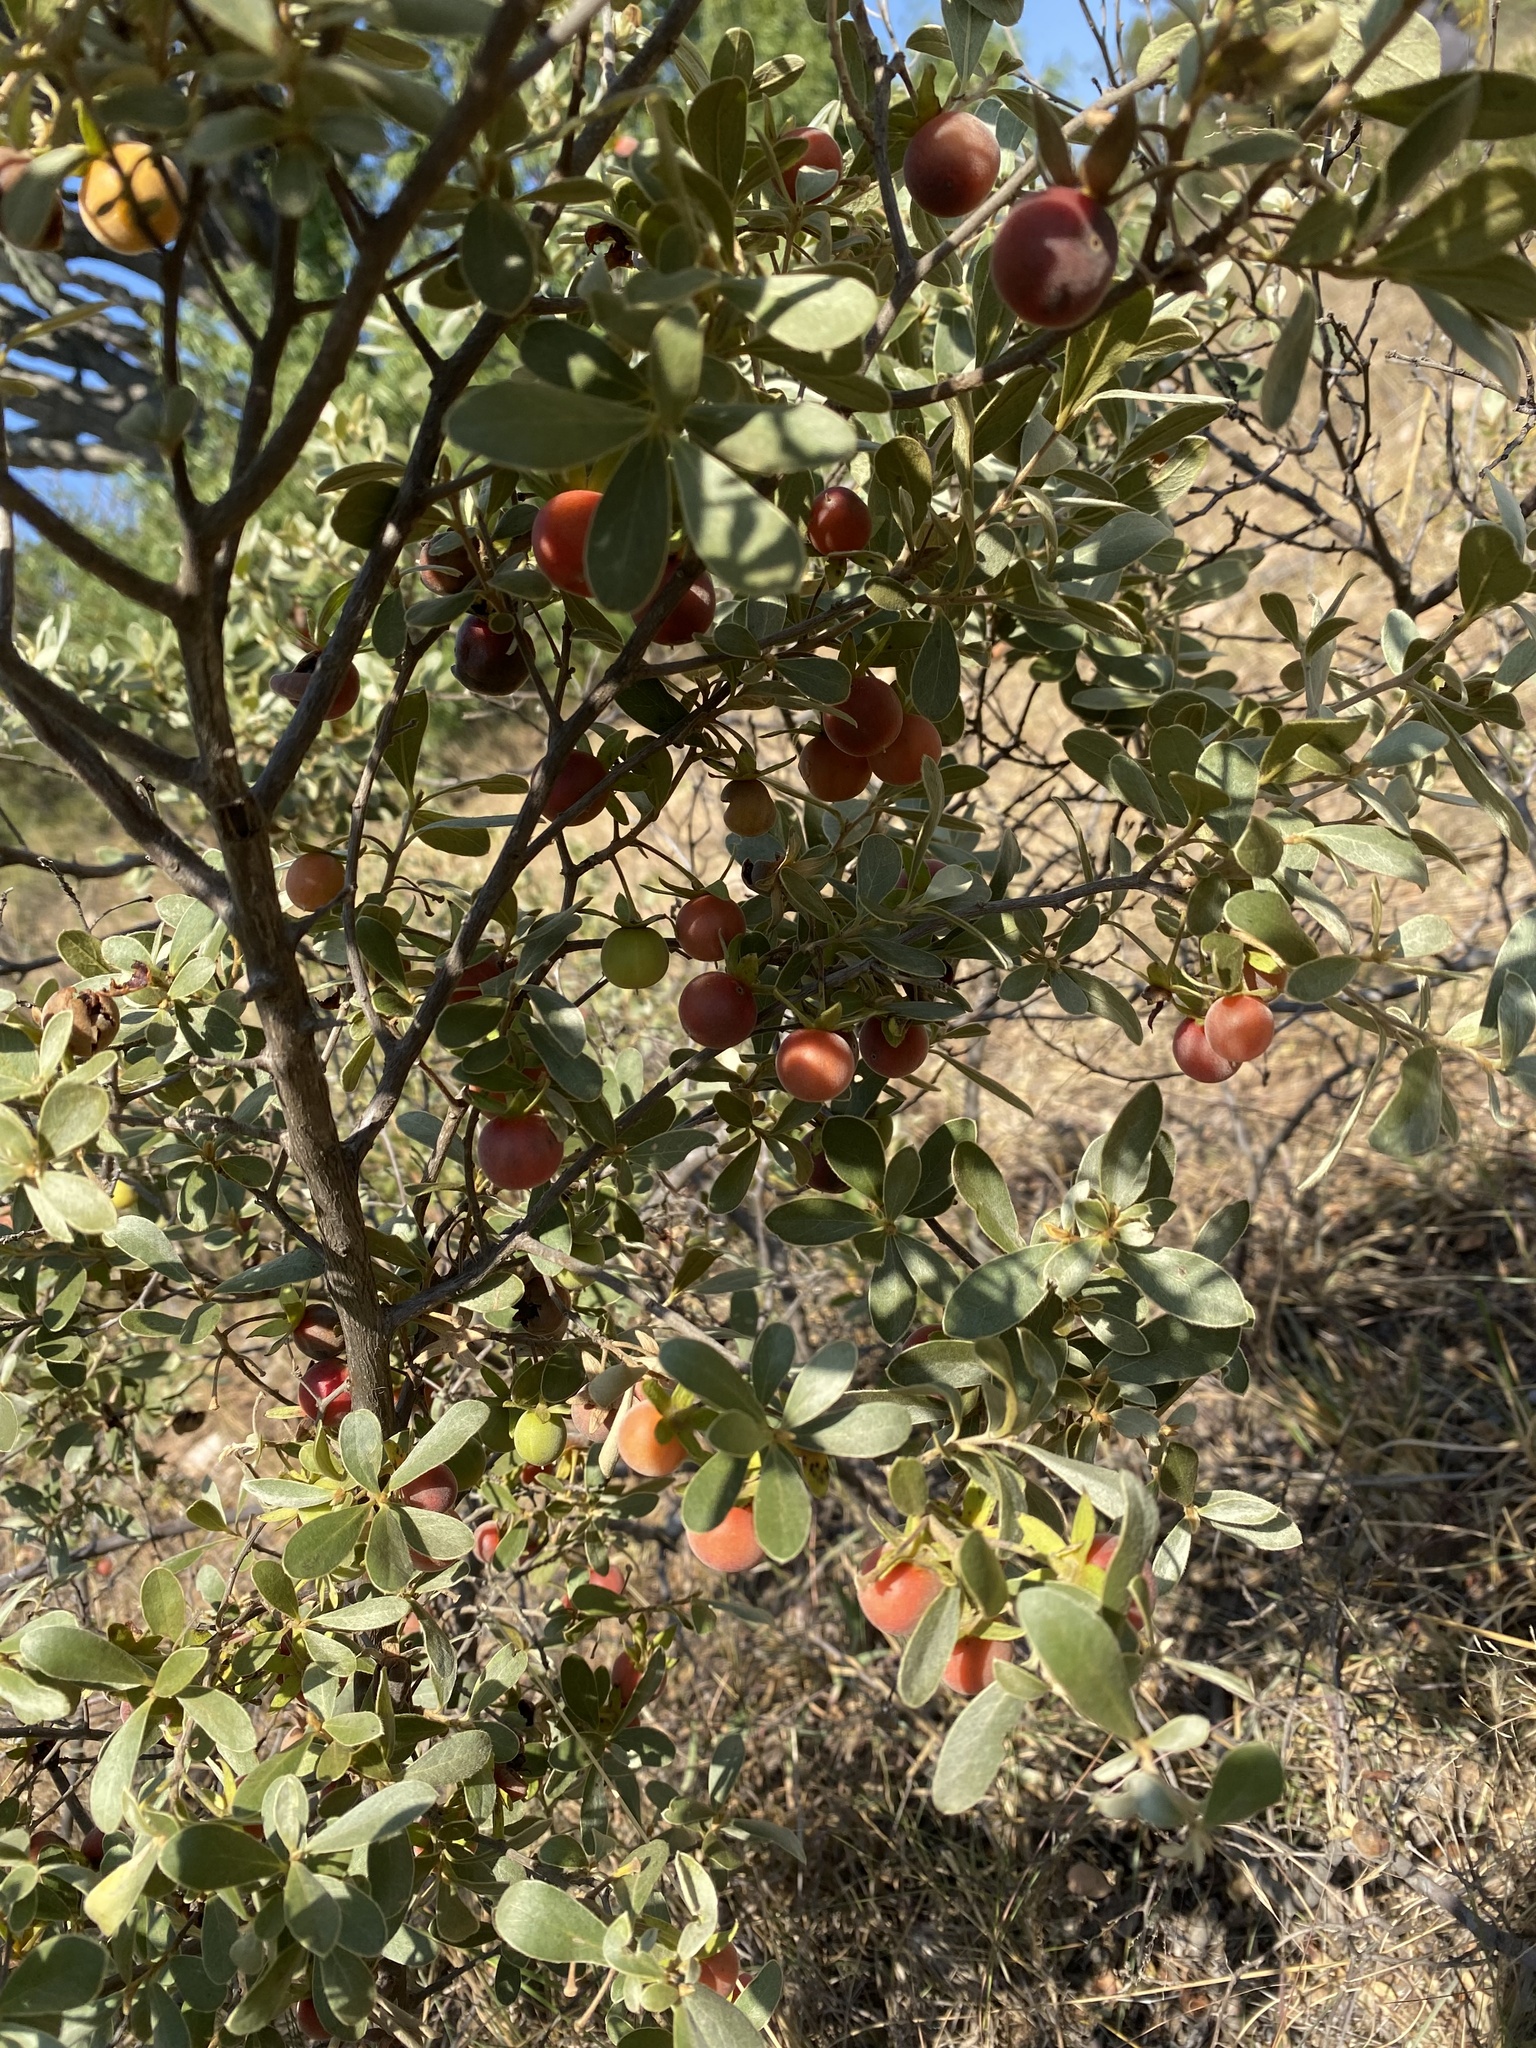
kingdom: Plantae
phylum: Tracheophyta
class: Magnoliopsida
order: Ericales
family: Ebenaceae
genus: Diospyros
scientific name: Diospyros lycioides
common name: Red star apple
